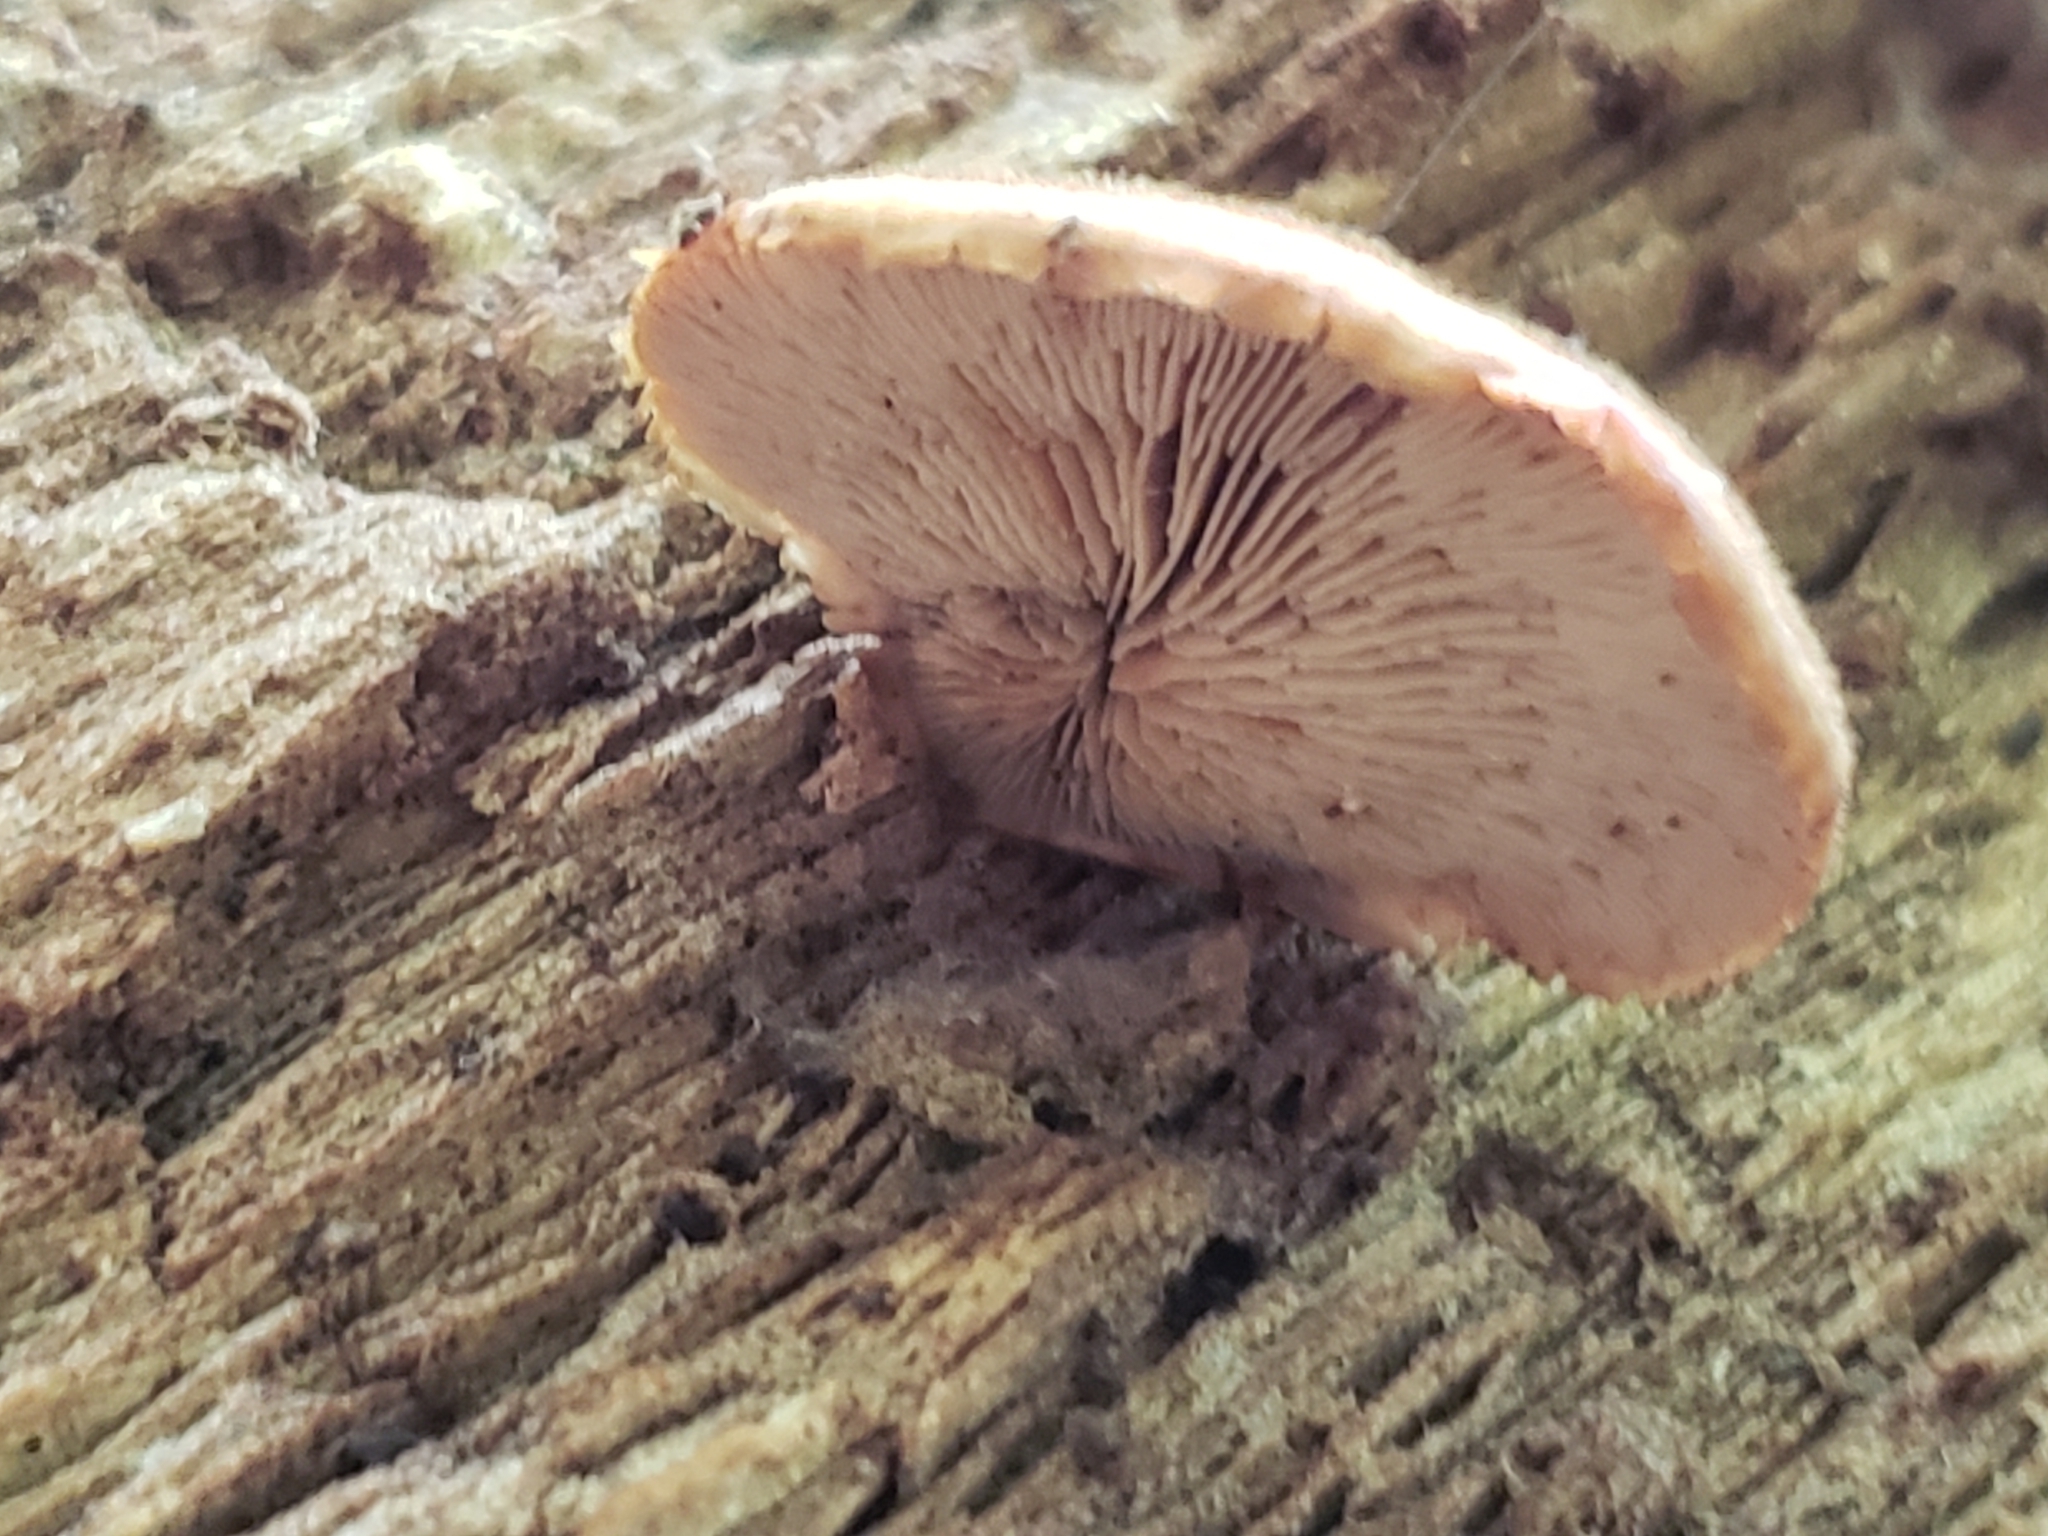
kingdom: Fungi
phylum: Basidiomycota
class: Agaricomycetes
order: Russulales
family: Auriscalpiaceae
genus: Lentinellus
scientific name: Lentinellus ursinus
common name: Bear lentinus
